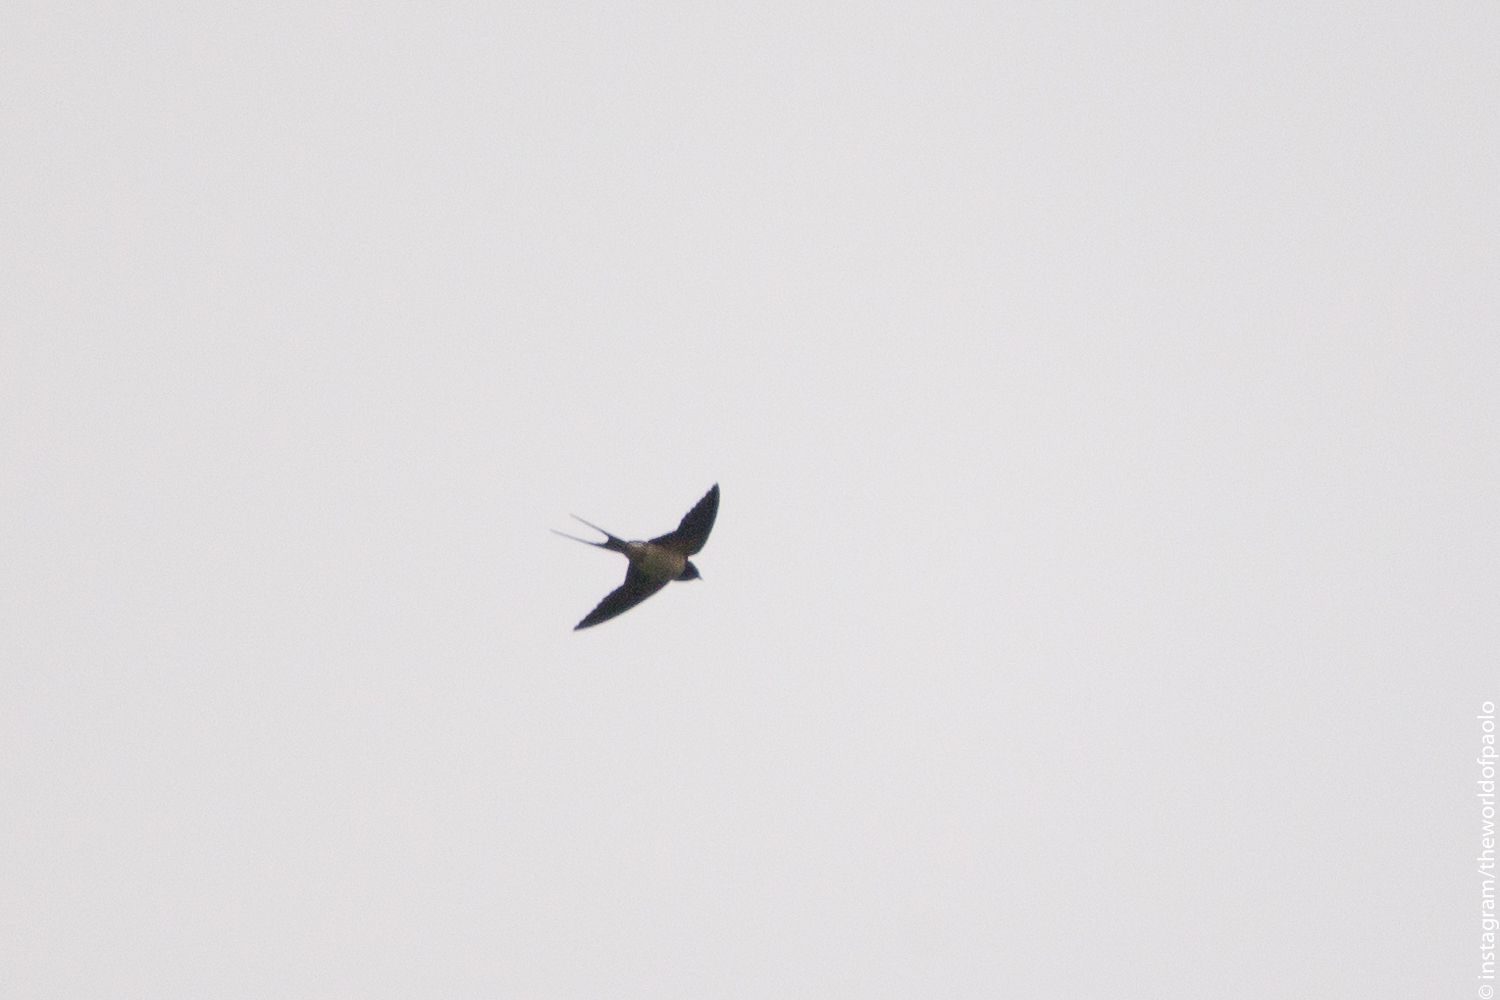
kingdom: Animalia
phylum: Chordata
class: Aves
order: Passeriformes
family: Hirundinidae
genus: Hirundo
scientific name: Hirundo rustica
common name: Barn swallow
